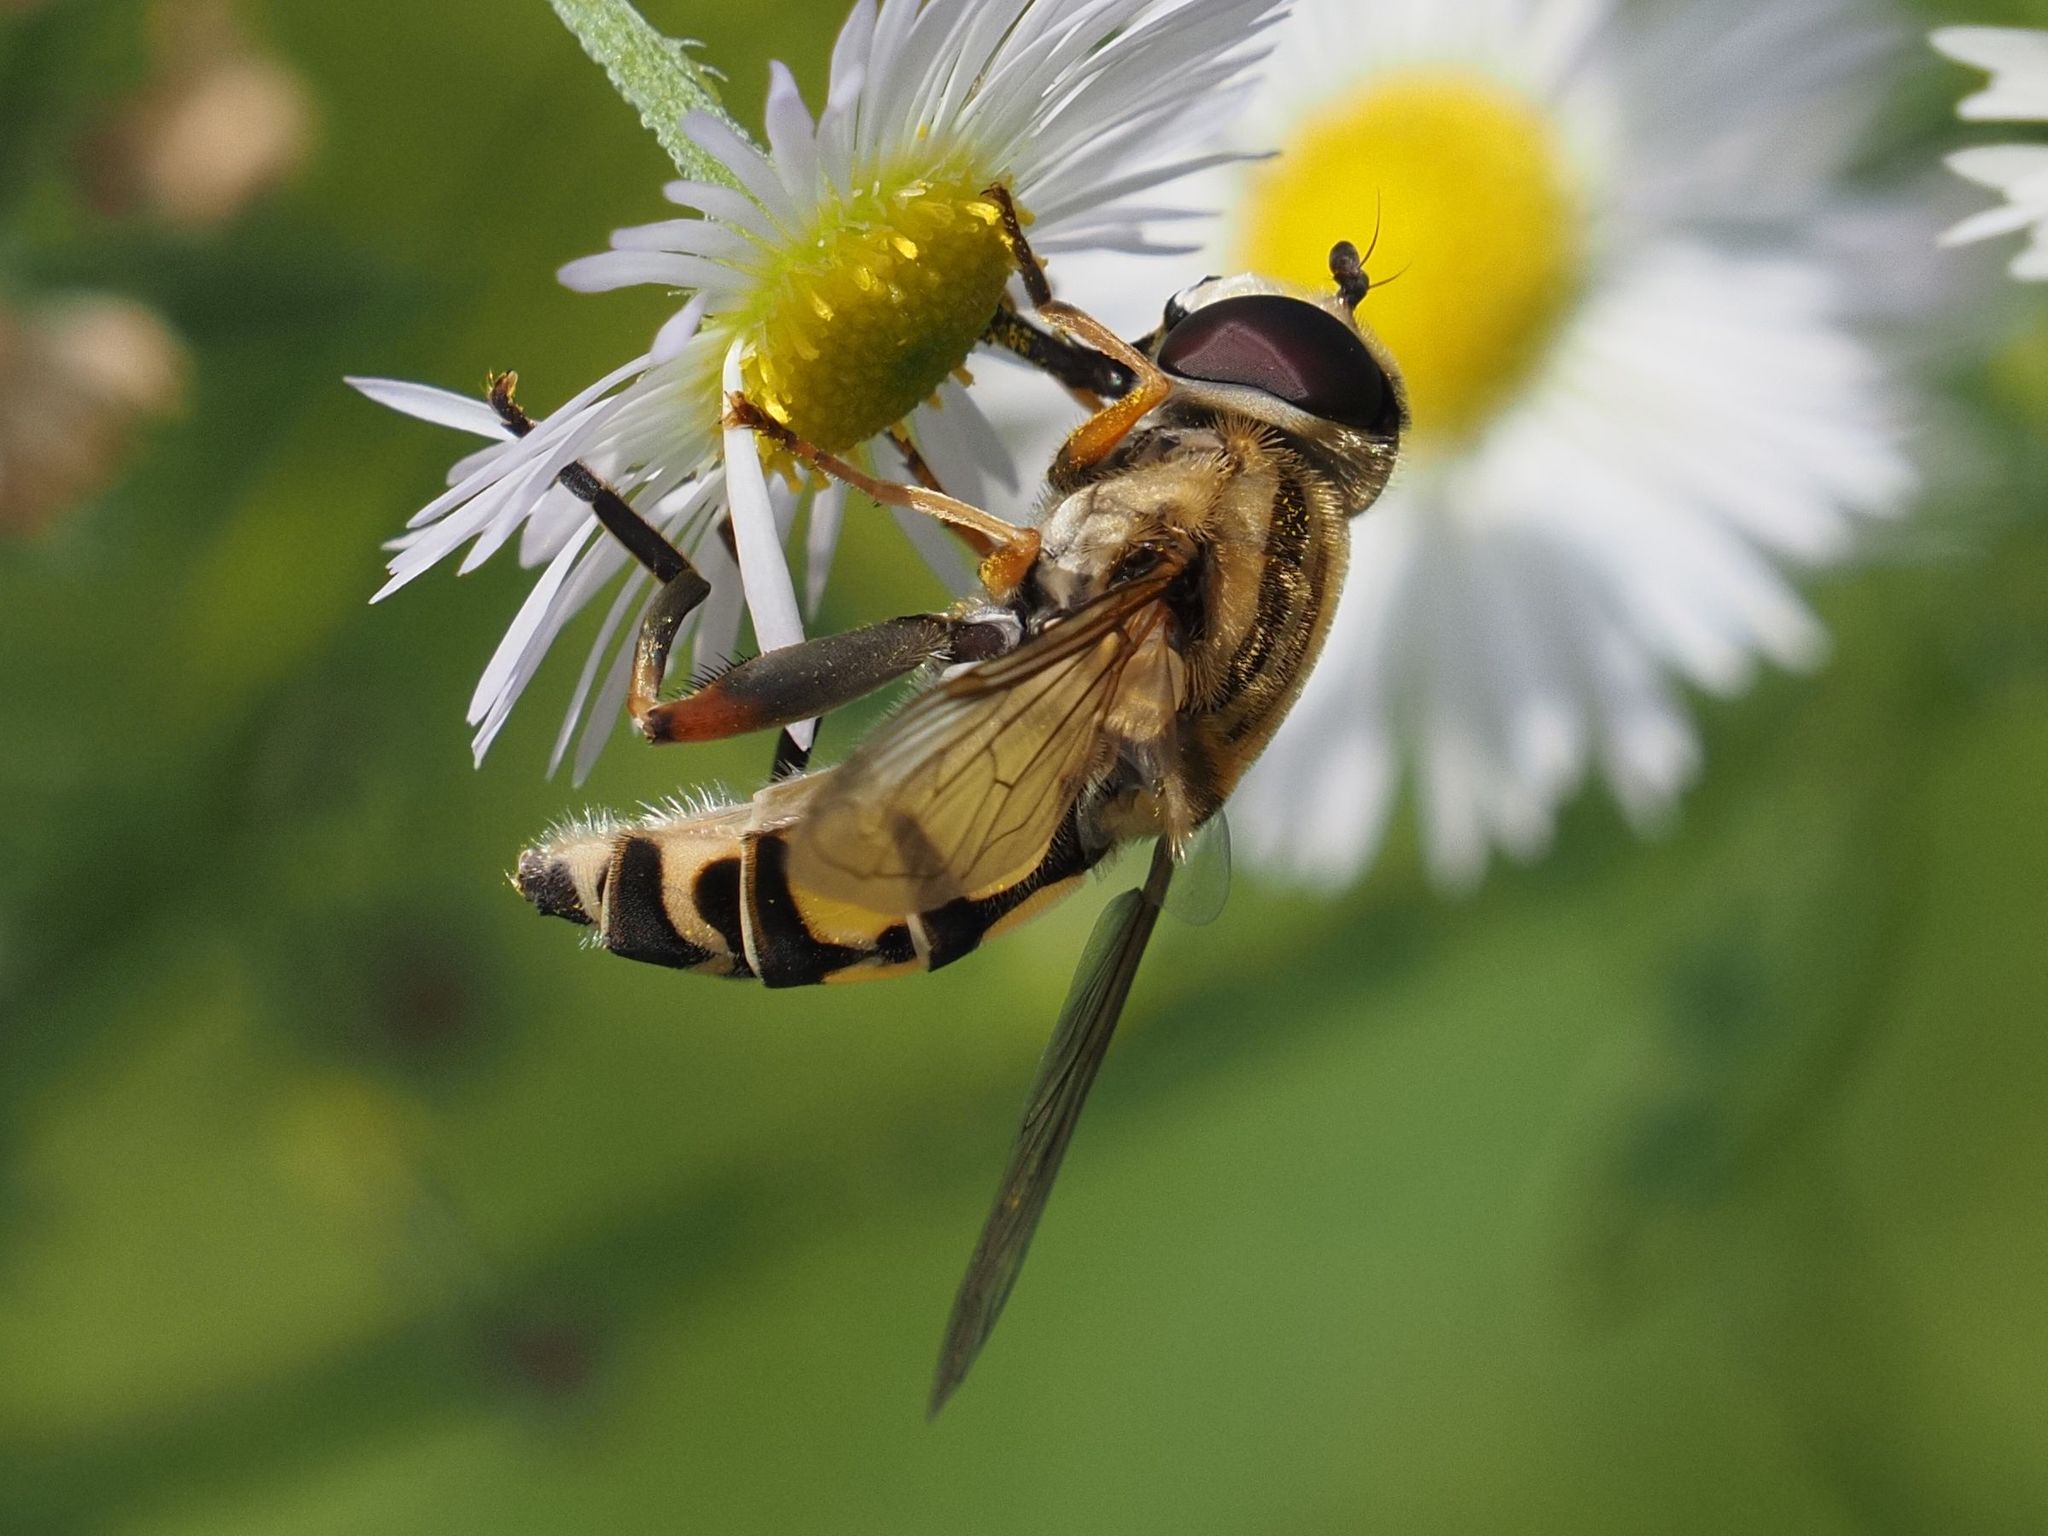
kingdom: Animalia
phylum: Arthropoda
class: Insecta
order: Diptera
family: Syrphidae
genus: Helophilus
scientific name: Helophilus trivittatus
